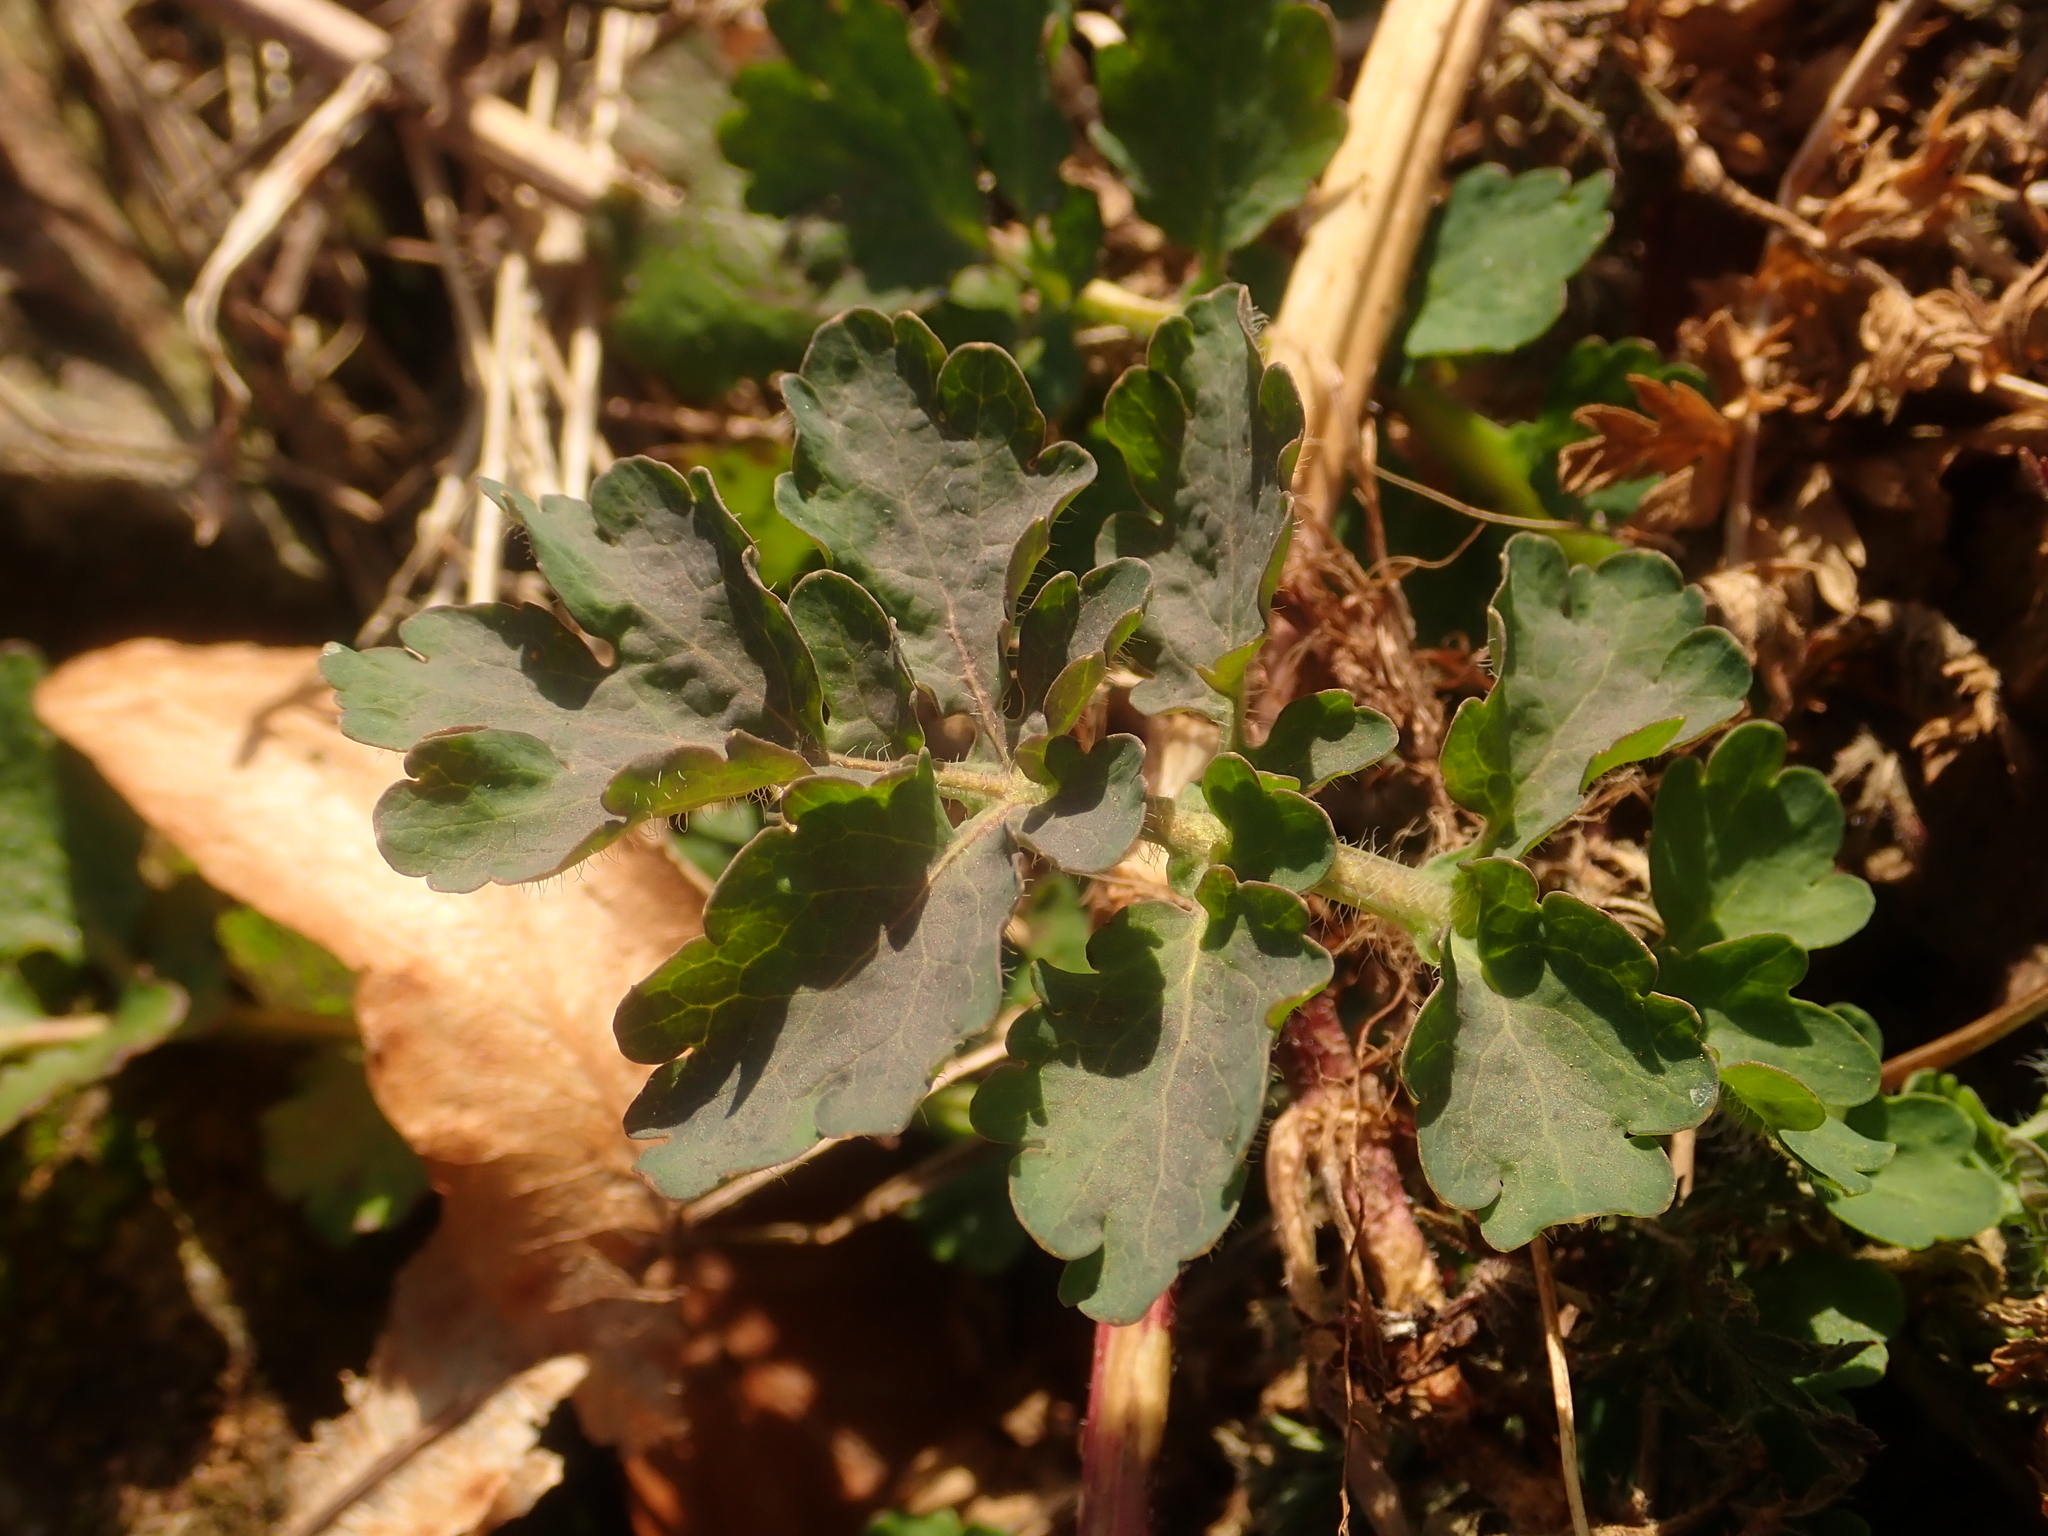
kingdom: Plantae
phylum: Tracheophyta
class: Magnoliopsida
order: Ranunculales
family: Papaveraceae
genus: Chelidonium
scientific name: Chelidonium majus
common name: Greater celandine
